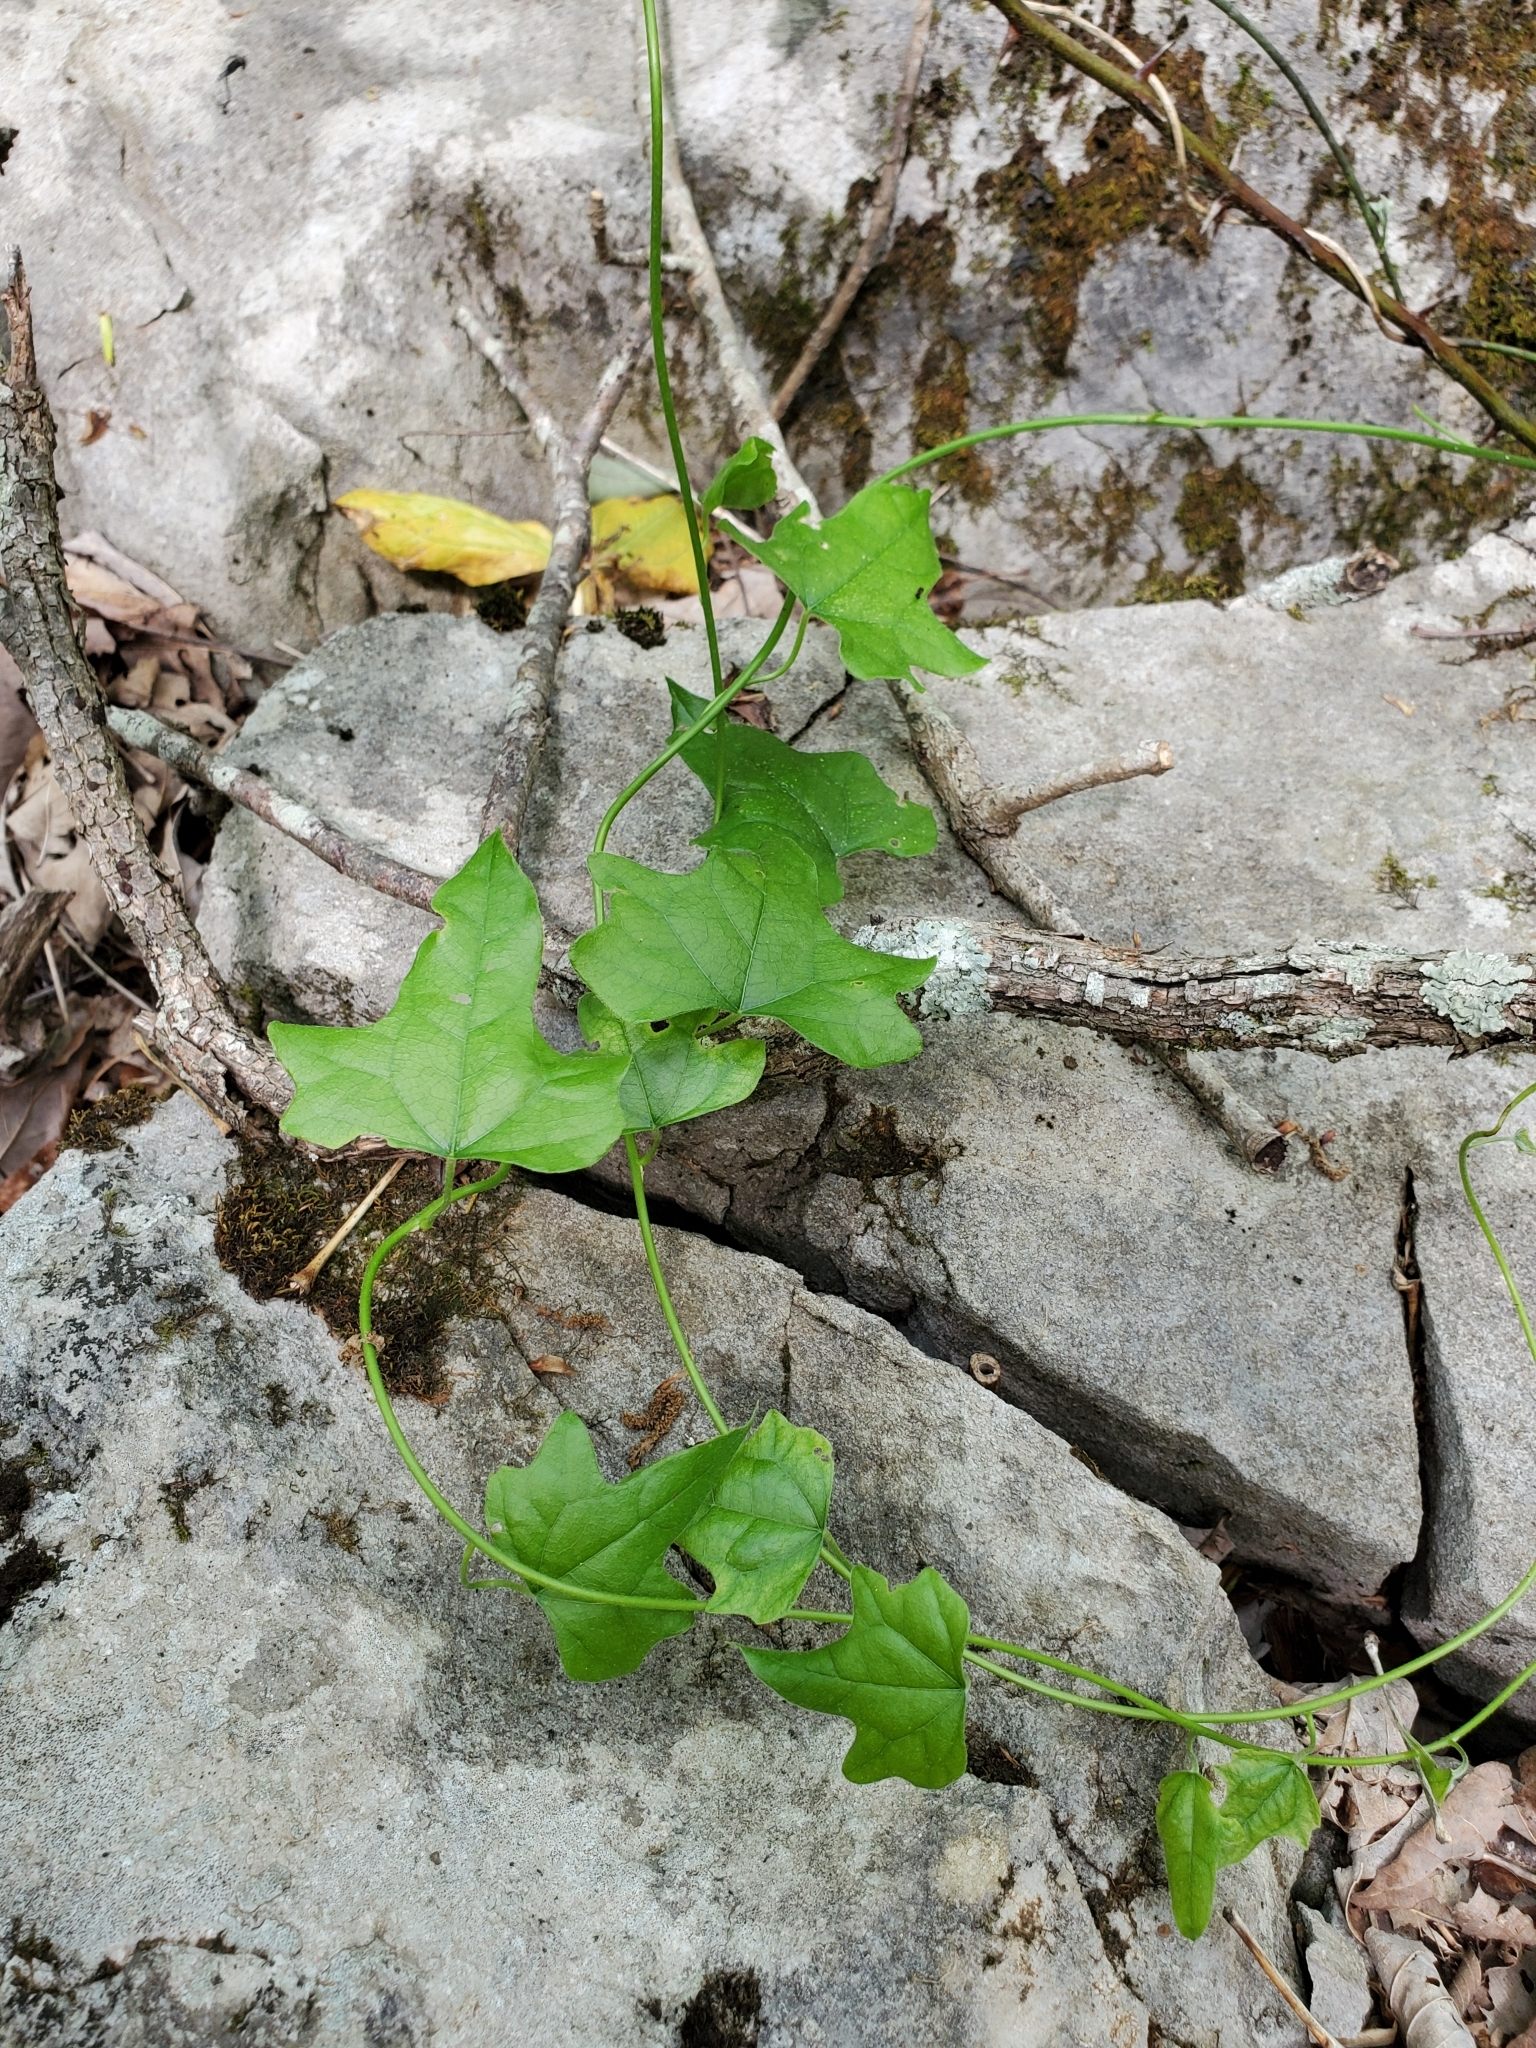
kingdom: Plantae
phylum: Tracheophyta
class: Magnoliopsida
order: Ranunculales
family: Menispermaceae
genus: Cocculus
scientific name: Cocculus carolinus
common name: Carolina moonseed
